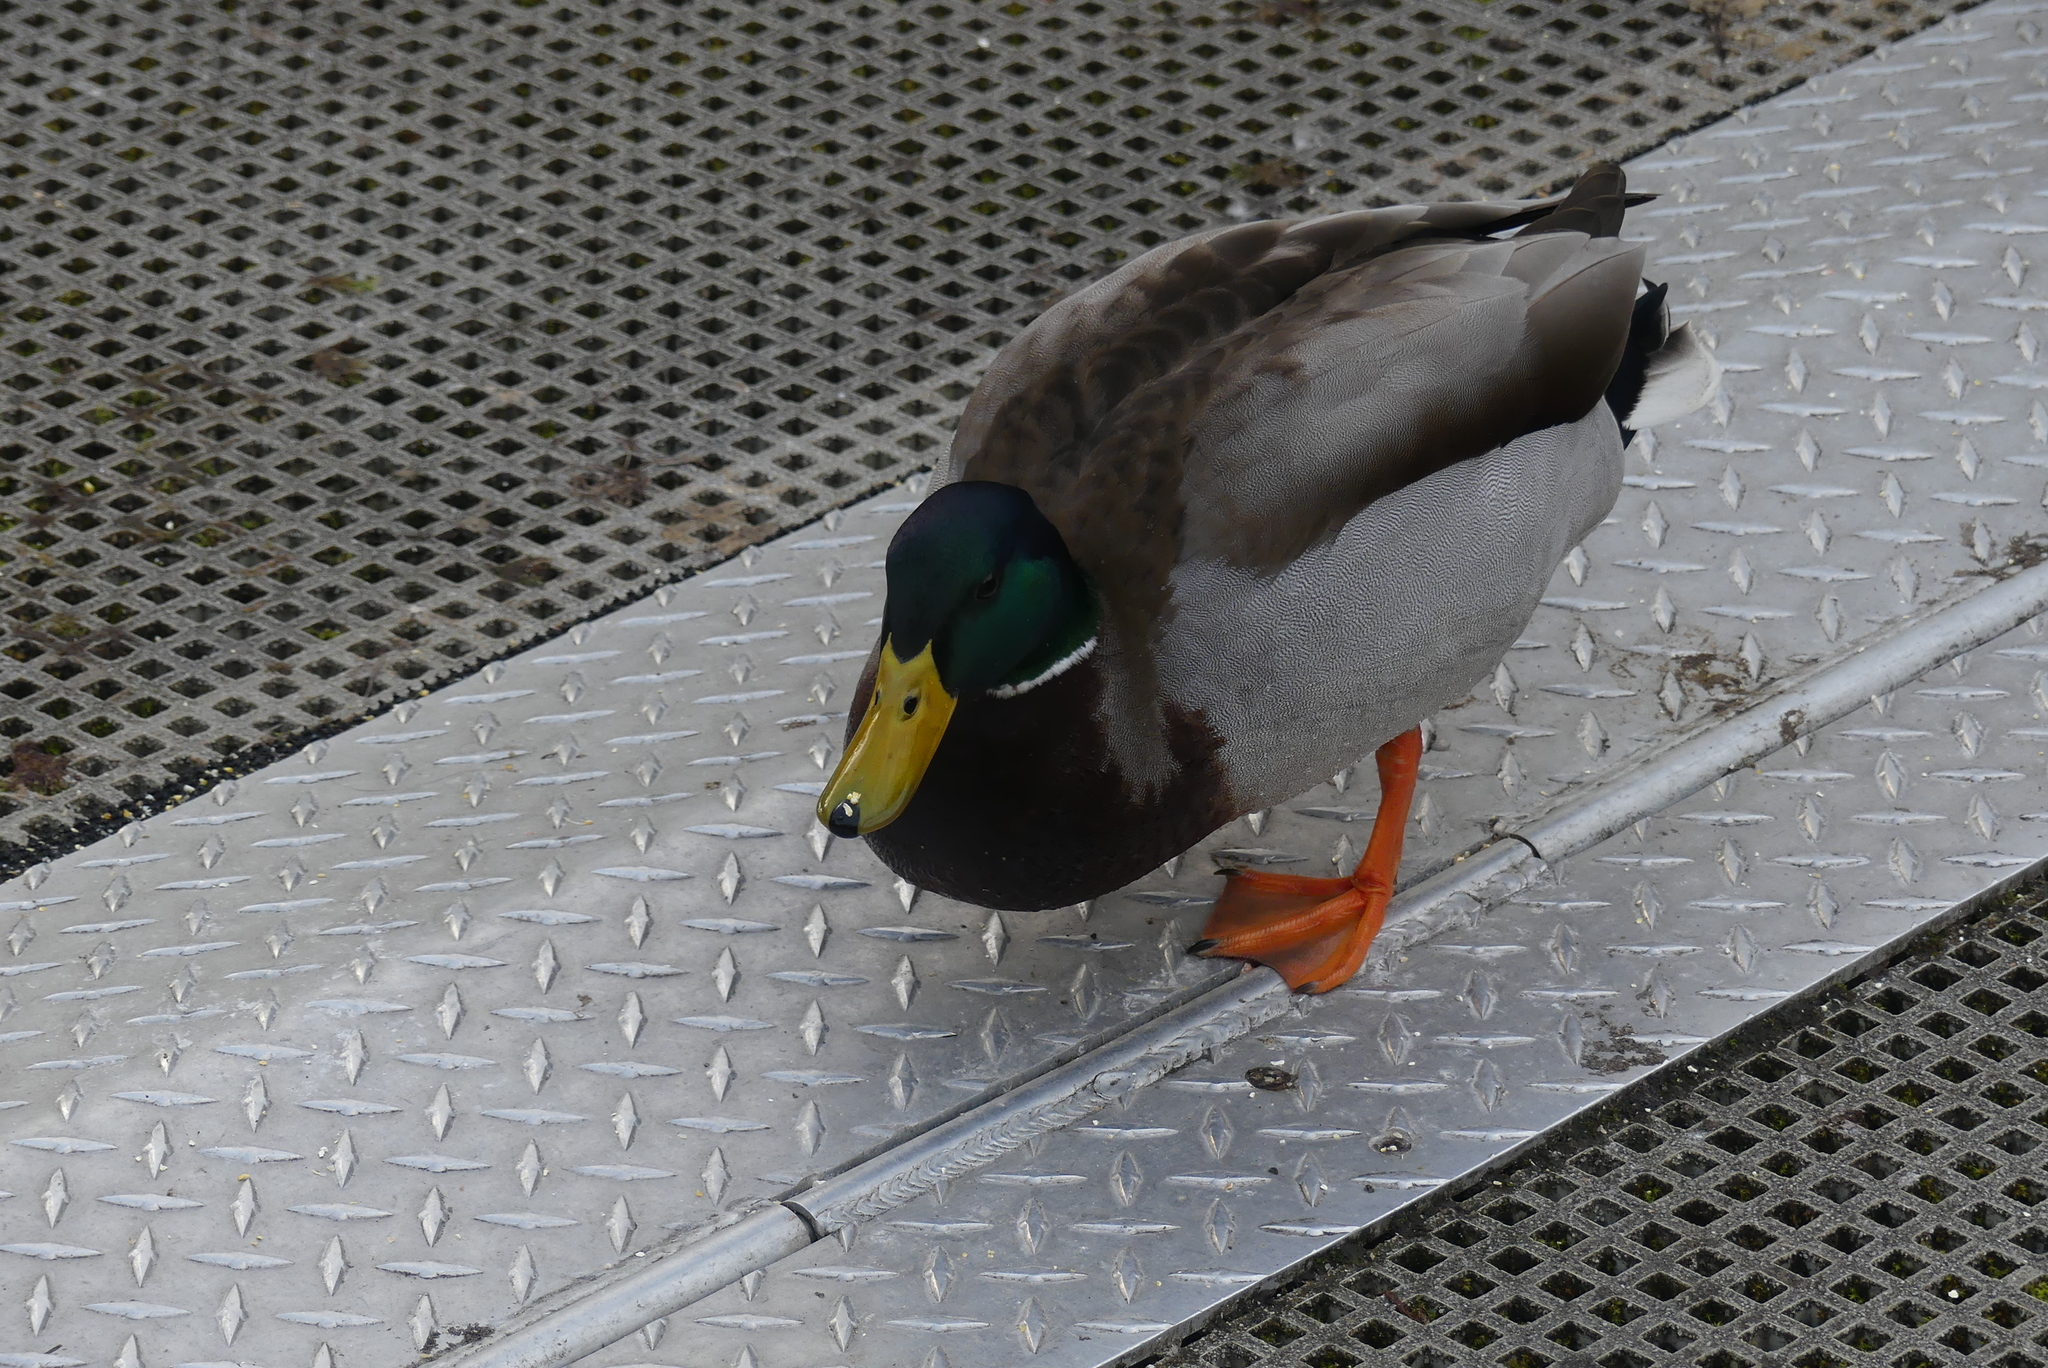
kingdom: Animalia
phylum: Chordata
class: Aves
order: Anseriformes
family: Anatidae
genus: Anas
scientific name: Anas platyrhynchos
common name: Mallard
